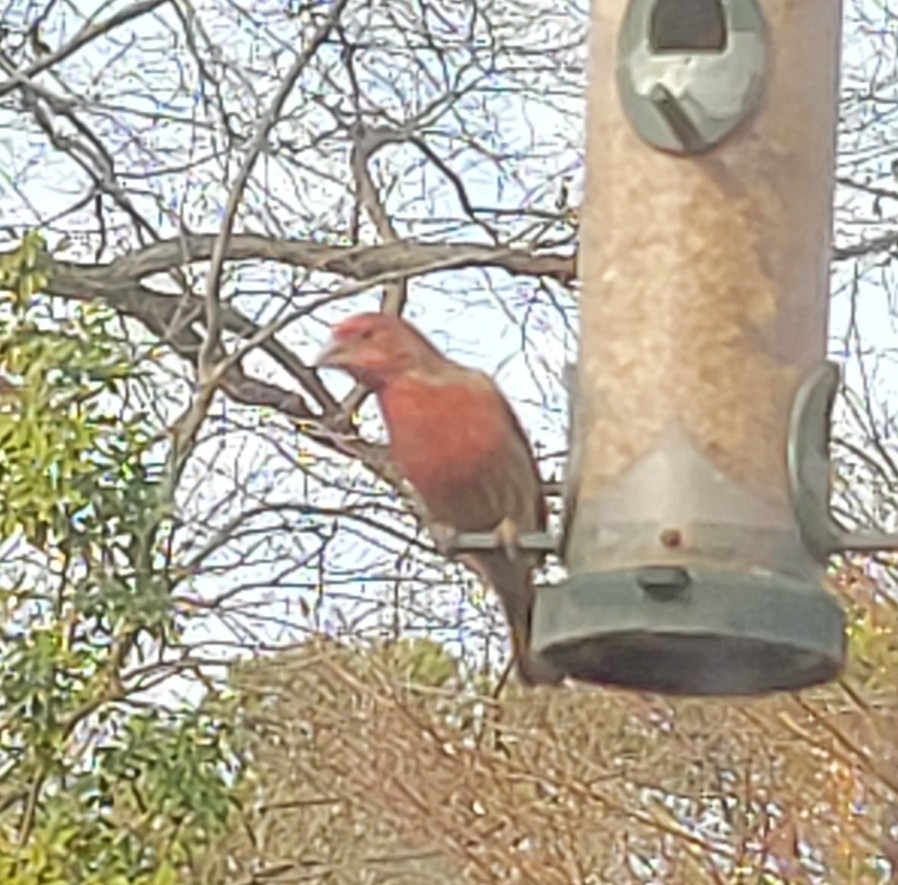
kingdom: Animalia
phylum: Chordata
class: Aves
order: Passeriformes
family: Fringillidae
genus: Haemorhous
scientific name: Haemorhous mexicanus
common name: House finch
